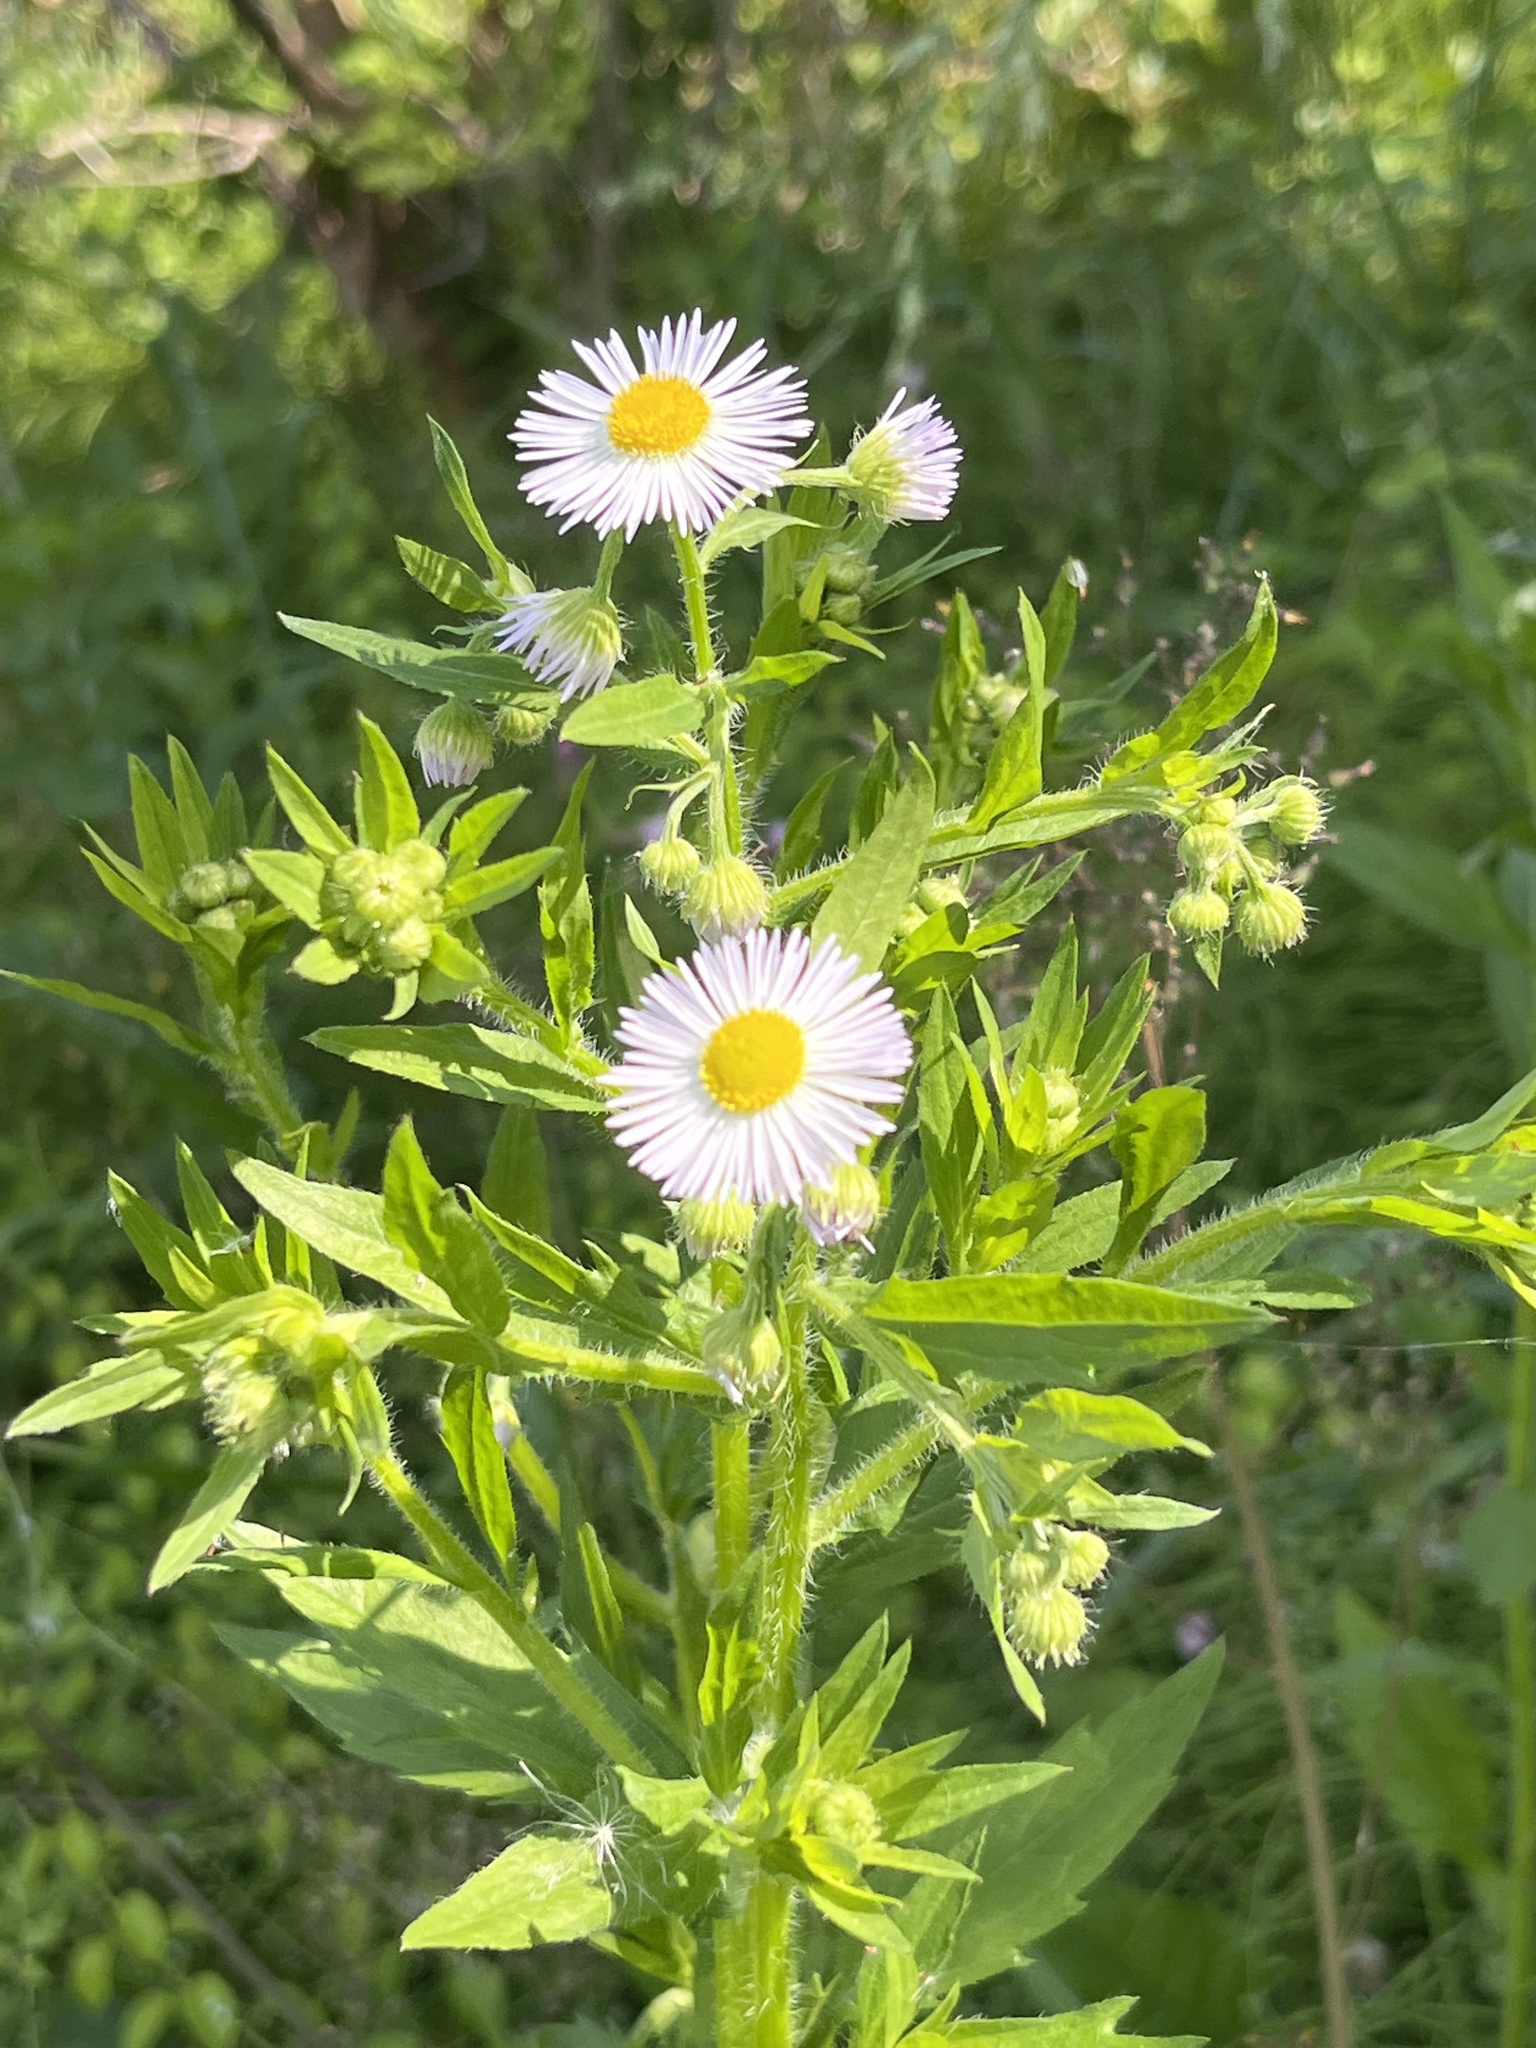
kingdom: Plantae
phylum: Tracheophyta
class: Magnoliopsida
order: Asterales
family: Asteraceae
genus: Erigeron
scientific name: Erigeron annuus
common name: Tall fleabane
